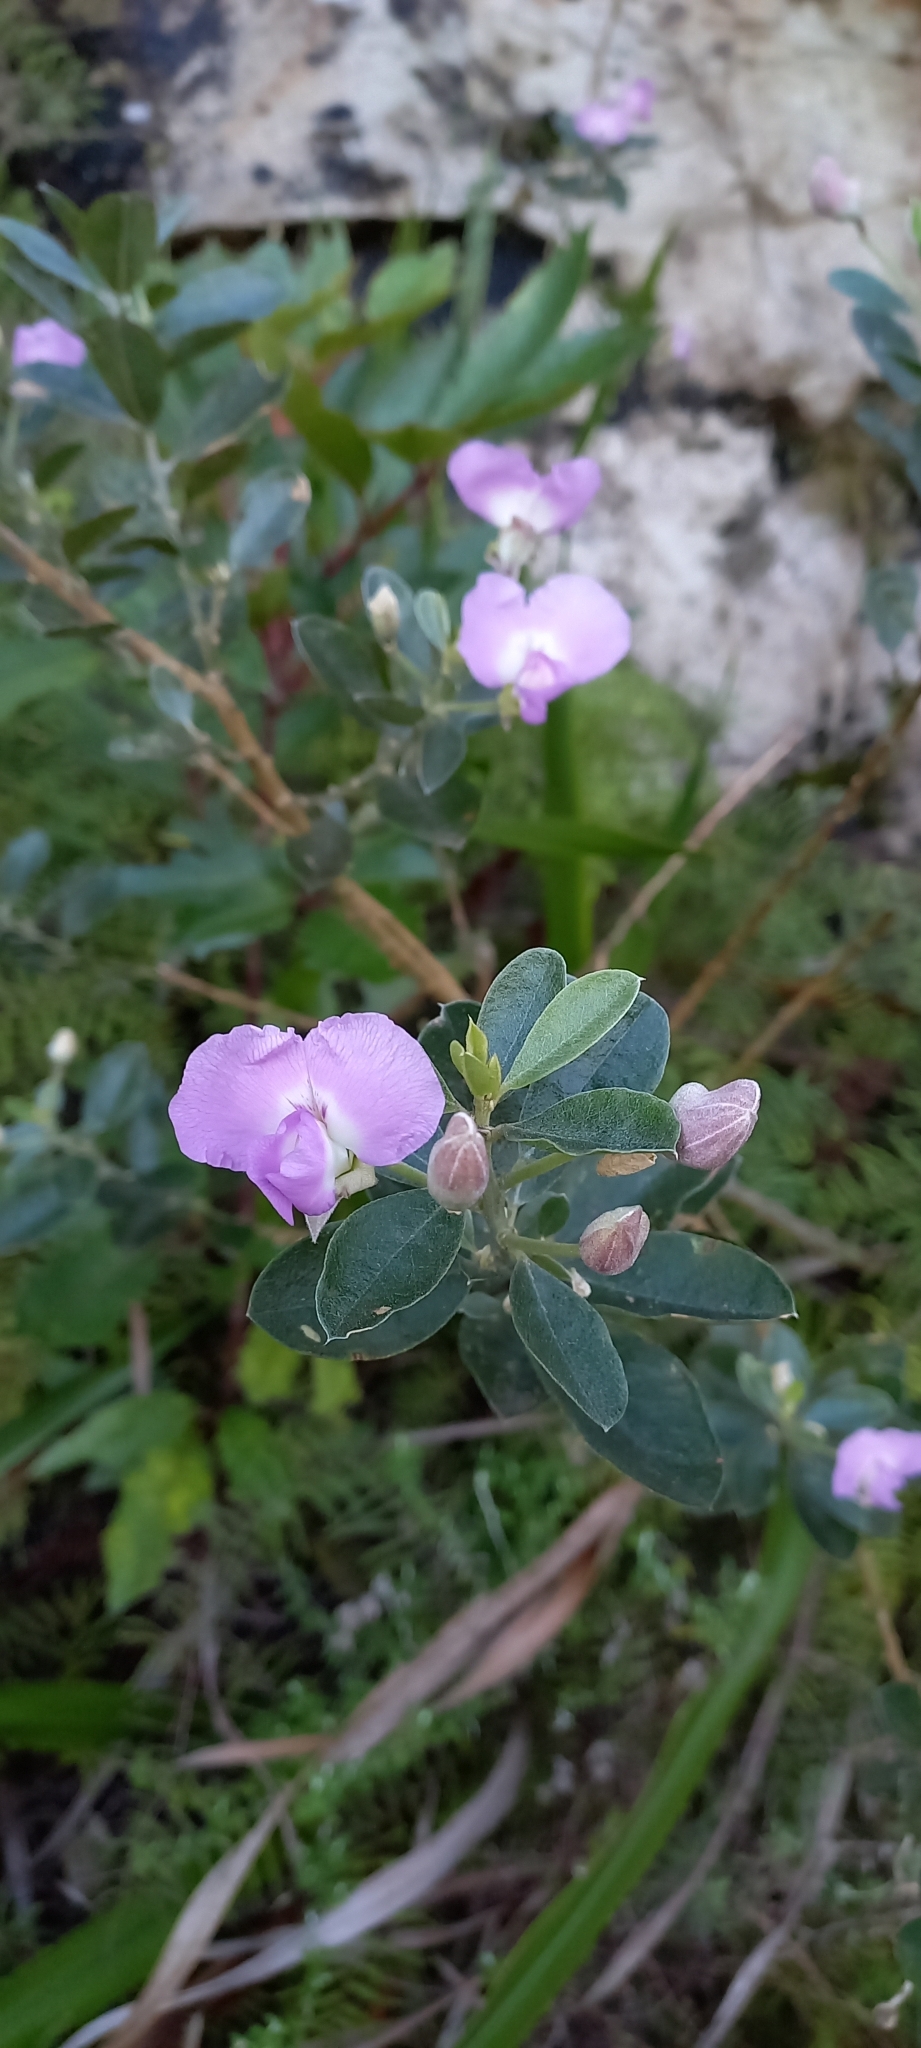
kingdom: Plantae
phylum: Tracheophyta
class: Magnoliopsida
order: Fabales
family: Fabaceae
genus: Podalyria
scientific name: Podalyria calyptrata
